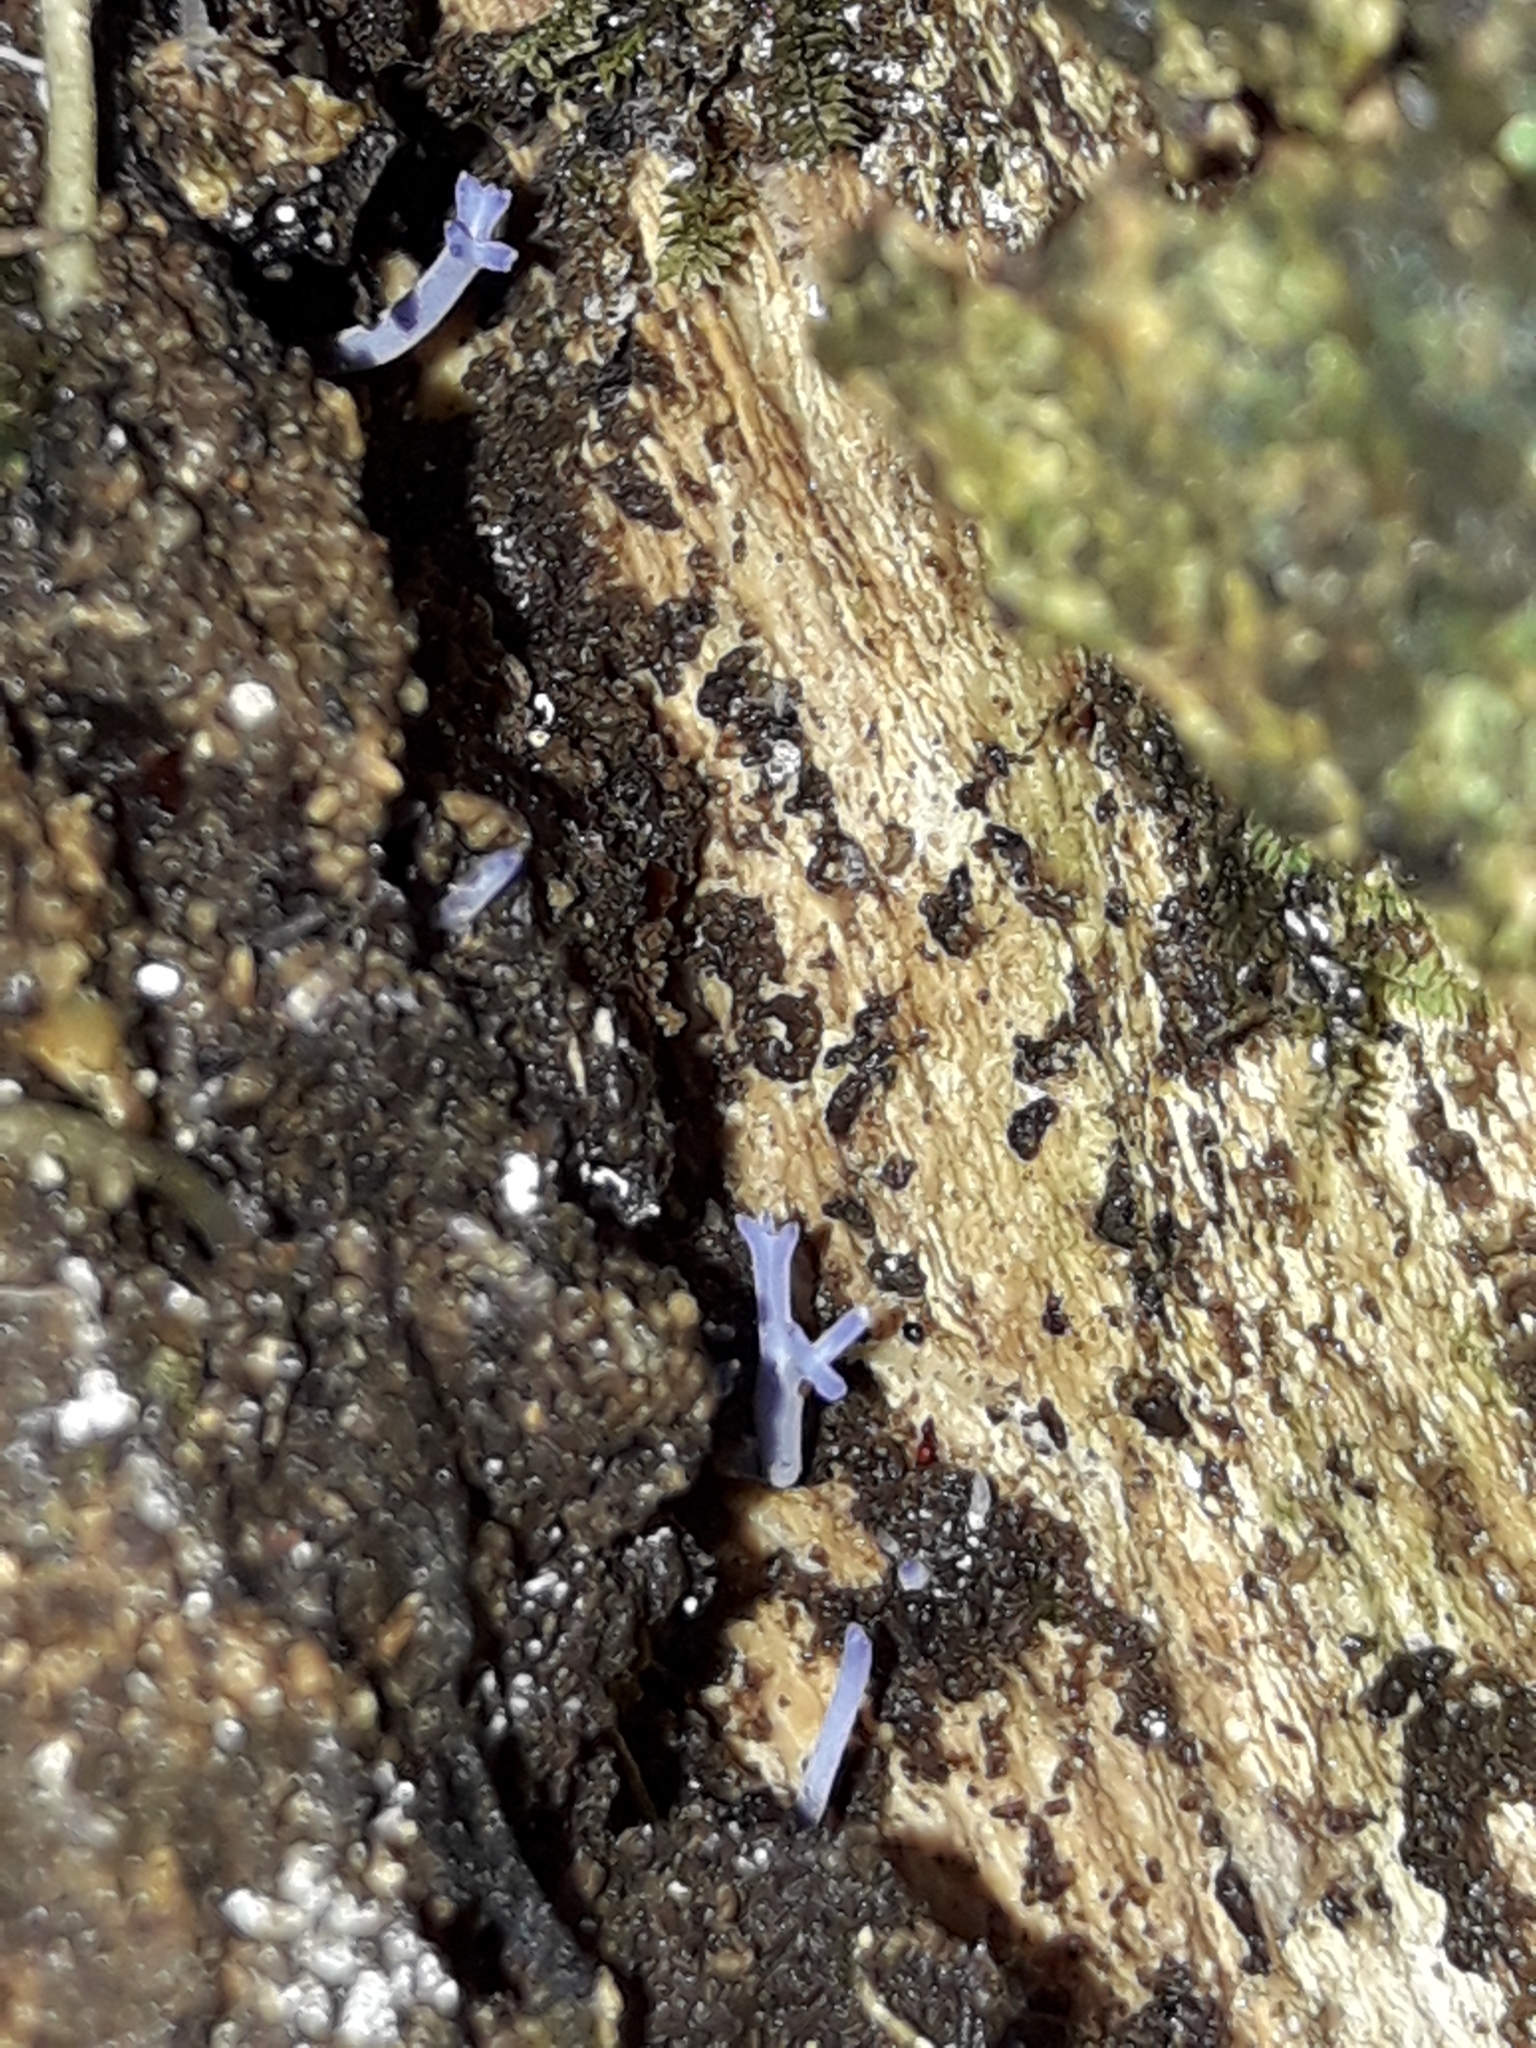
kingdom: Fungi
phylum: Basidiomycota
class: Agaricomycetes
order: Agaricales
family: Clavariaceae
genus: Ramariopsis
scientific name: Ramariopsis pulchella
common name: Lilac coral
